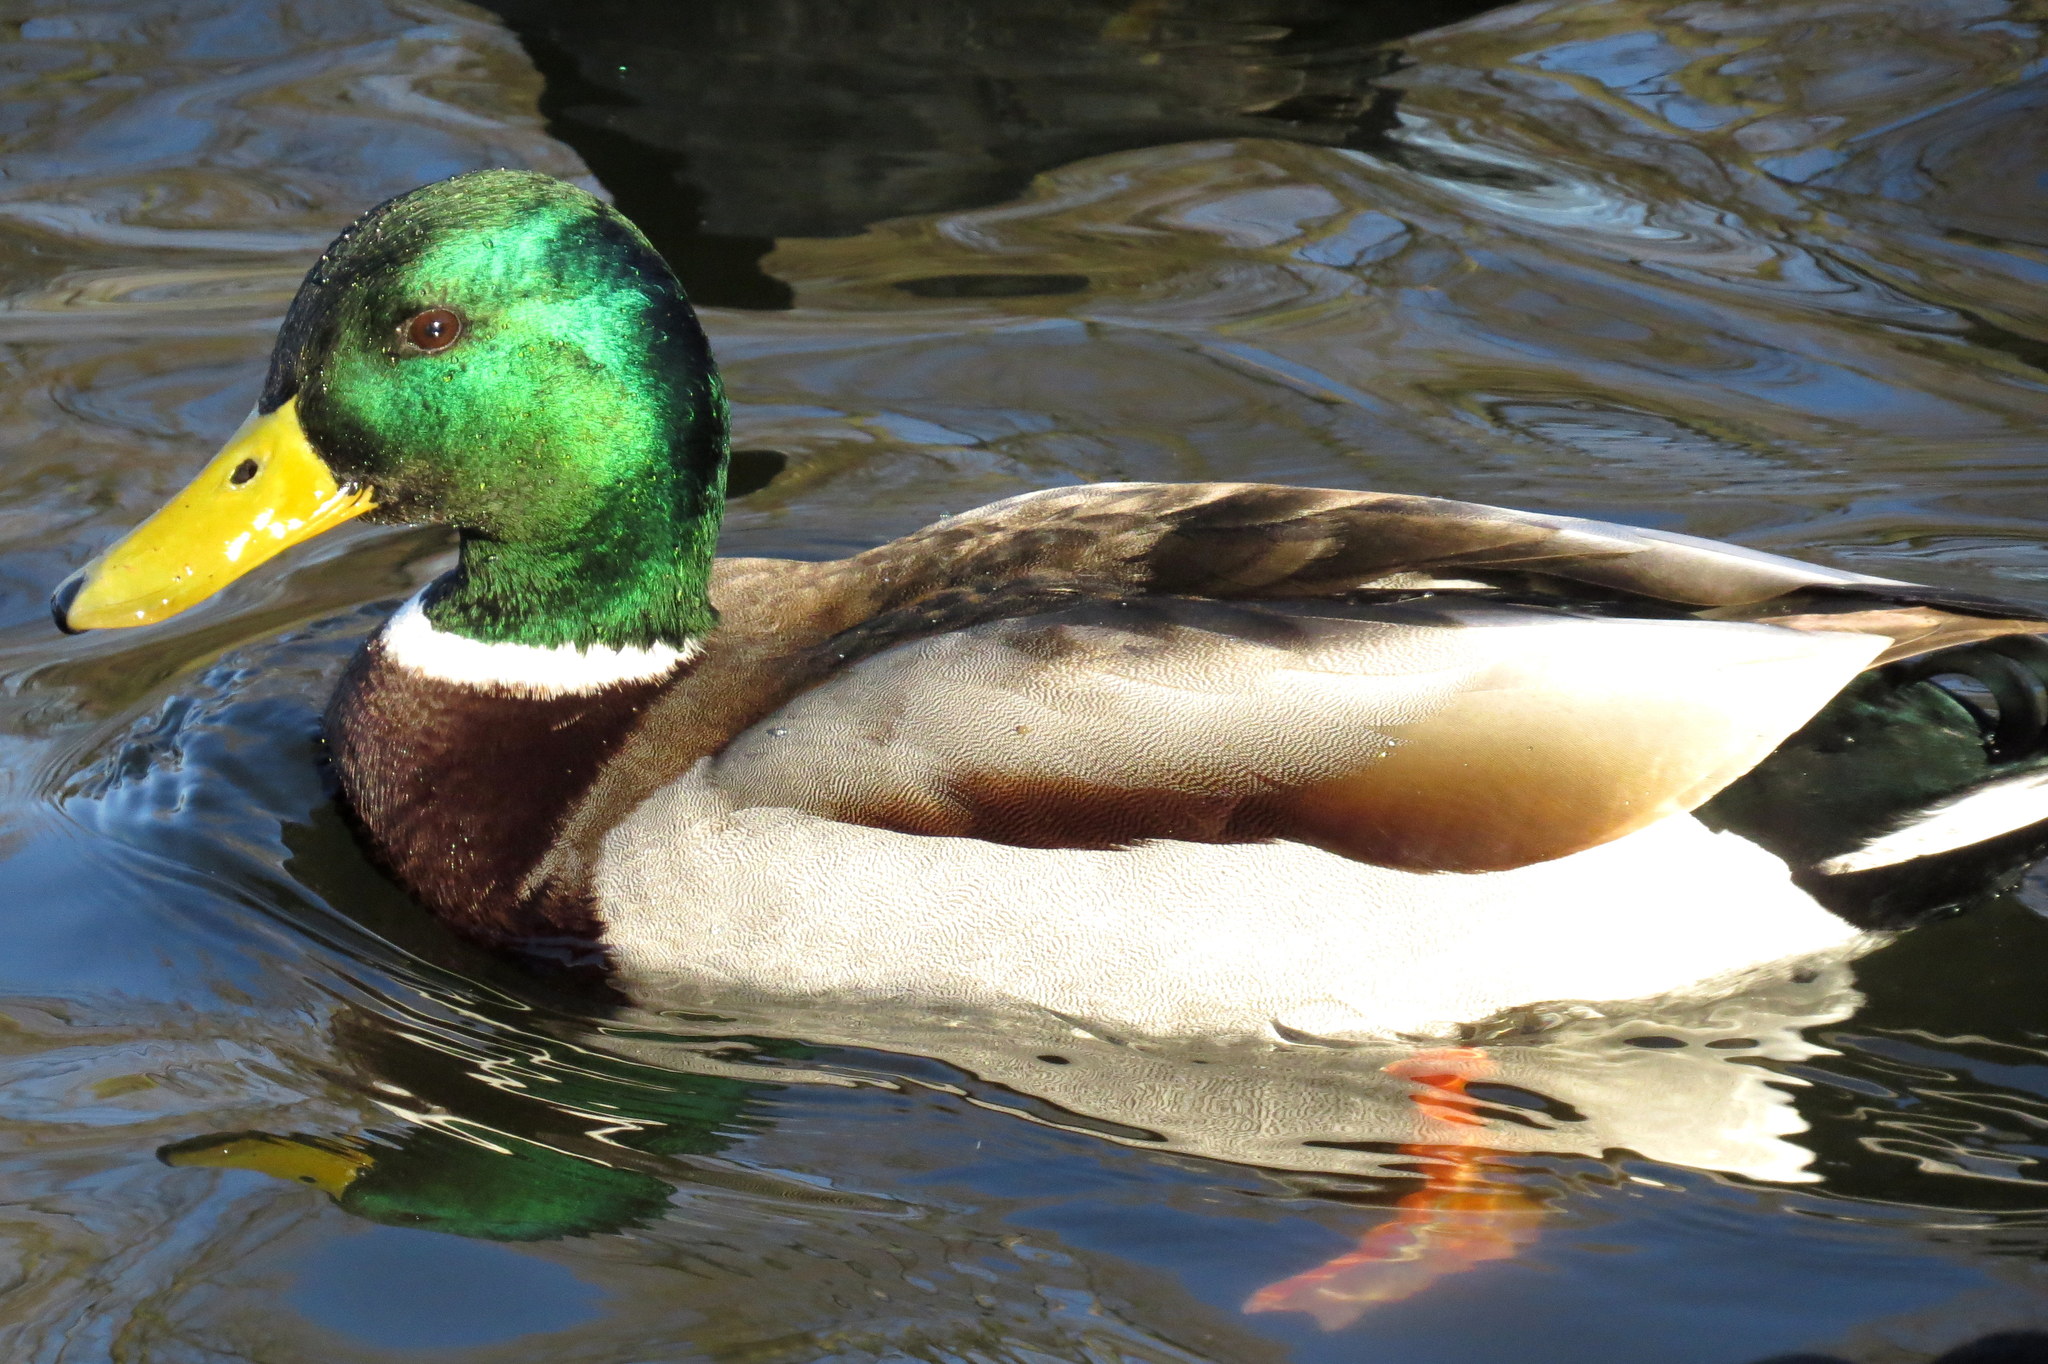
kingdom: Animalia
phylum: Chordata
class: Aves
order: Anseriformes
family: Anatidae
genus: Anas
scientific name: Anas platyrhynchos
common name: Mallard
